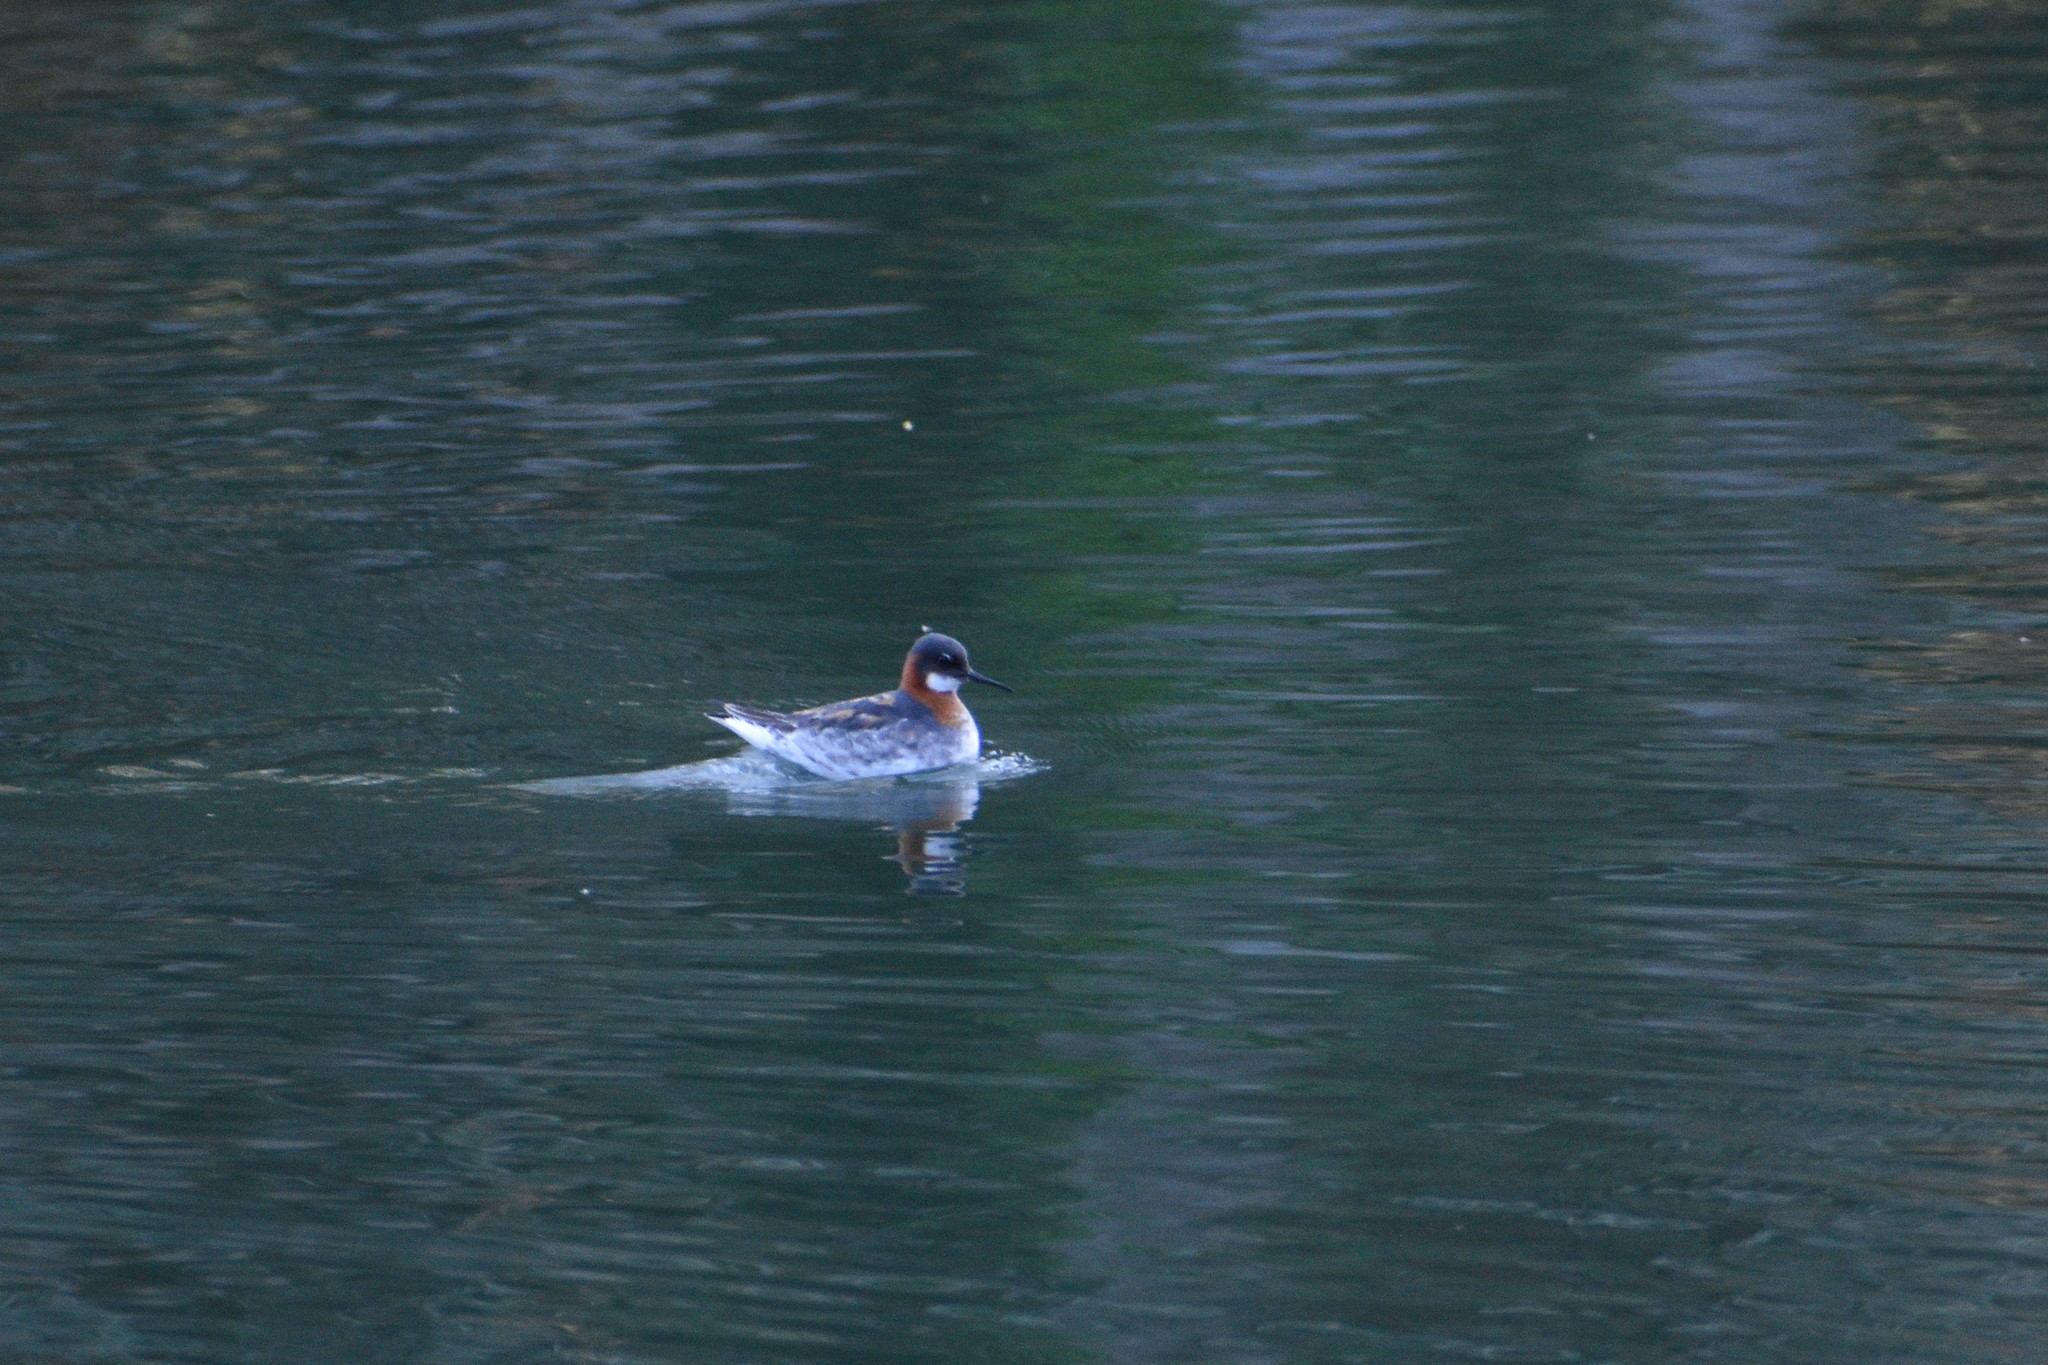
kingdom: Animalia
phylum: Chordata
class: Aves
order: Charadriiformes
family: Scolopacidae
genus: Phalaropus
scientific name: Phalaropus lobatus
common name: Red-necked phalarope
